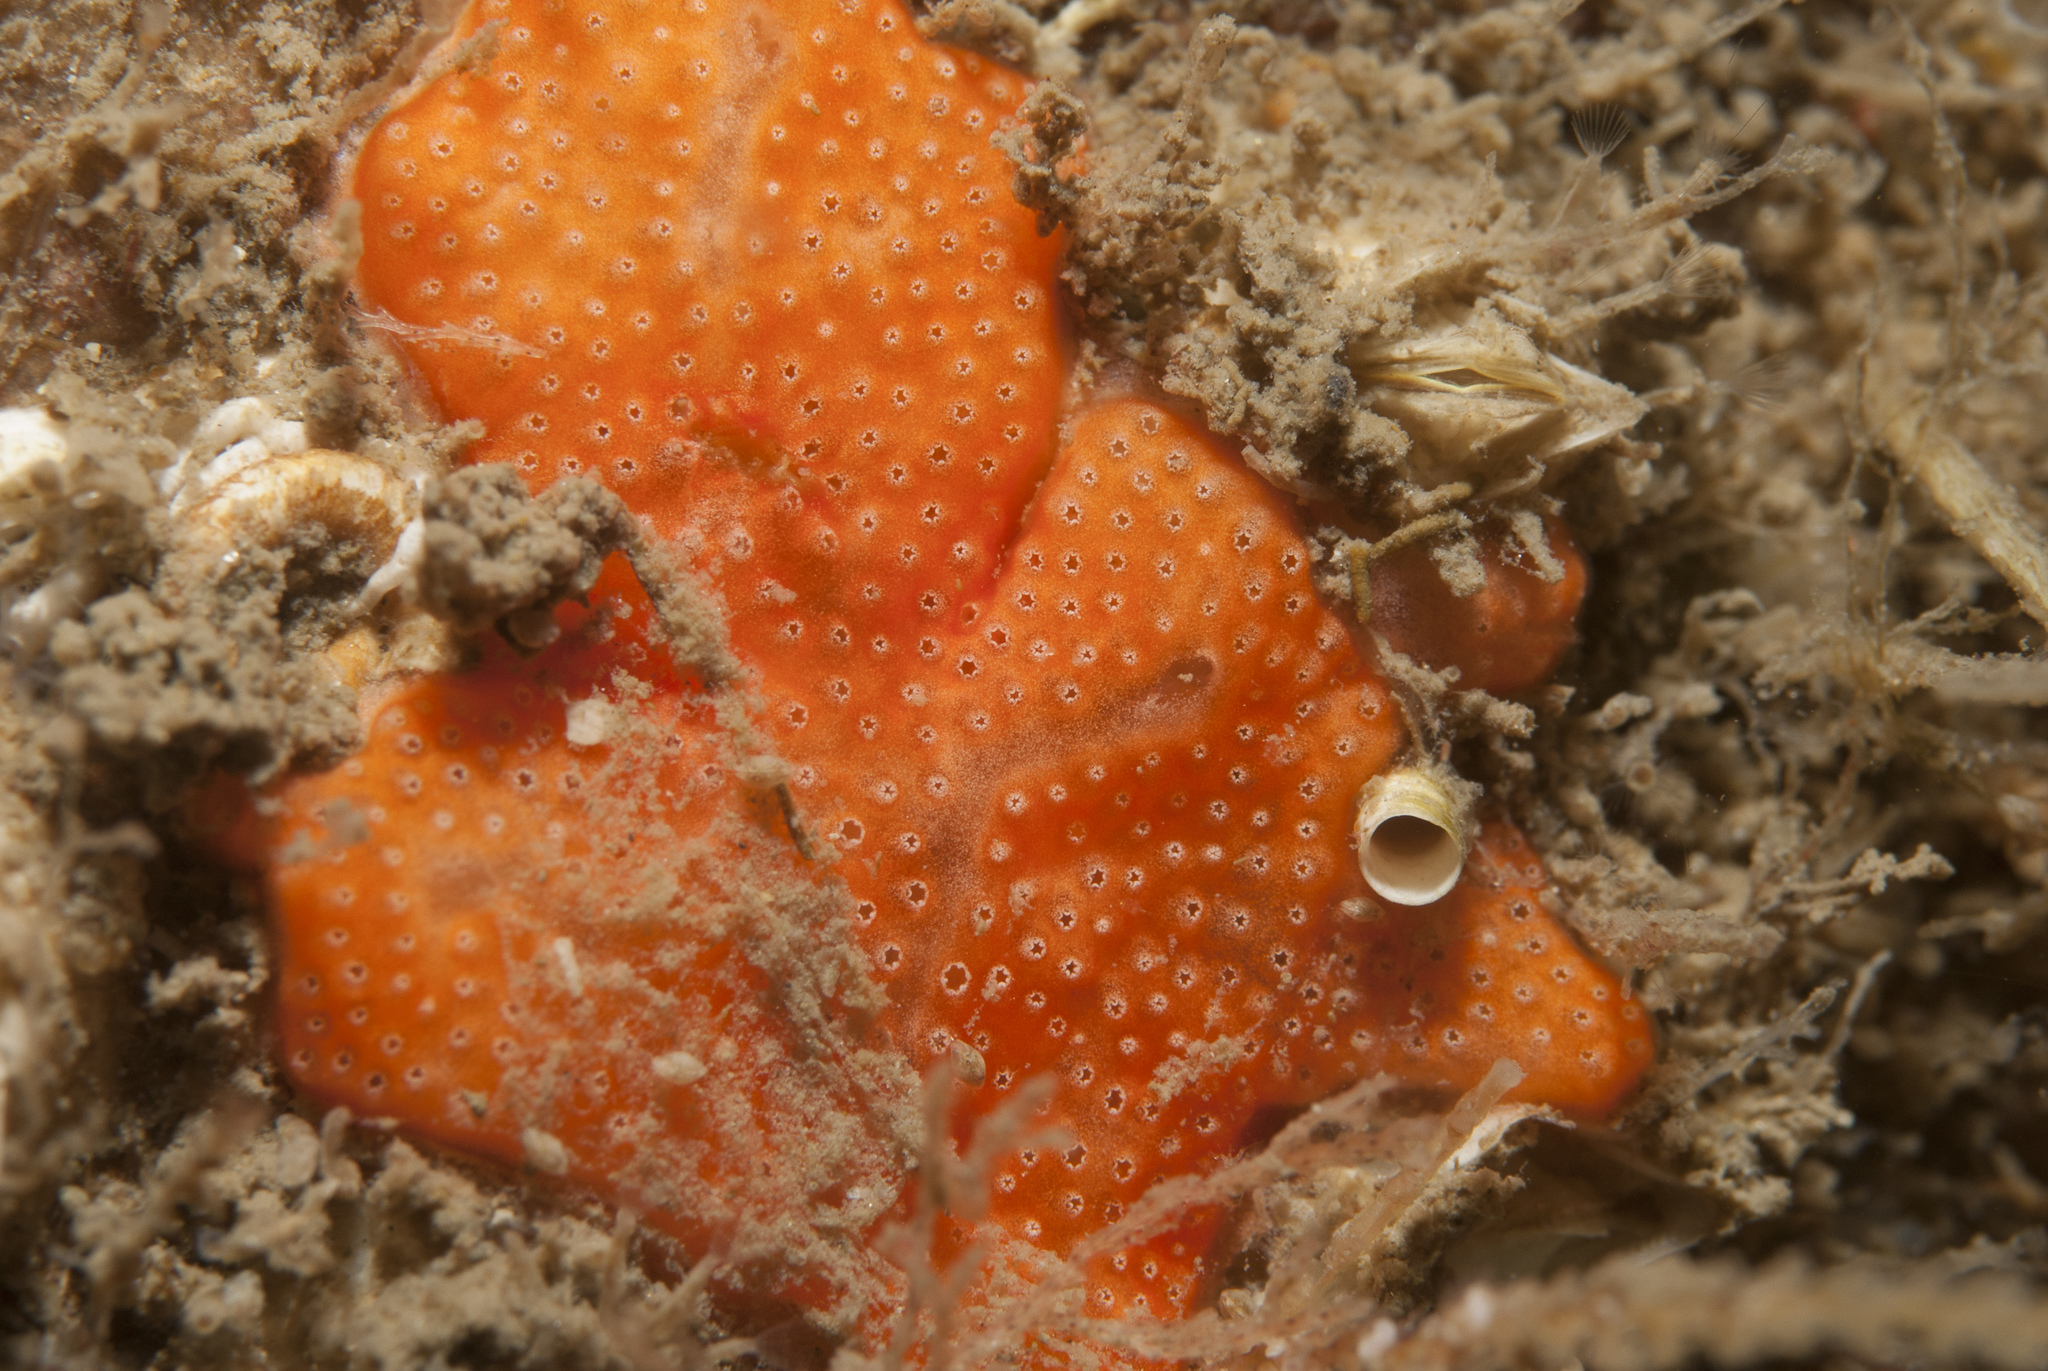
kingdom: Animalia
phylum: Chordata
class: Ascidiacea
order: Aplousobranchia
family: Didemnidae
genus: Didemnum
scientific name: Didemnum pseudofulgens
